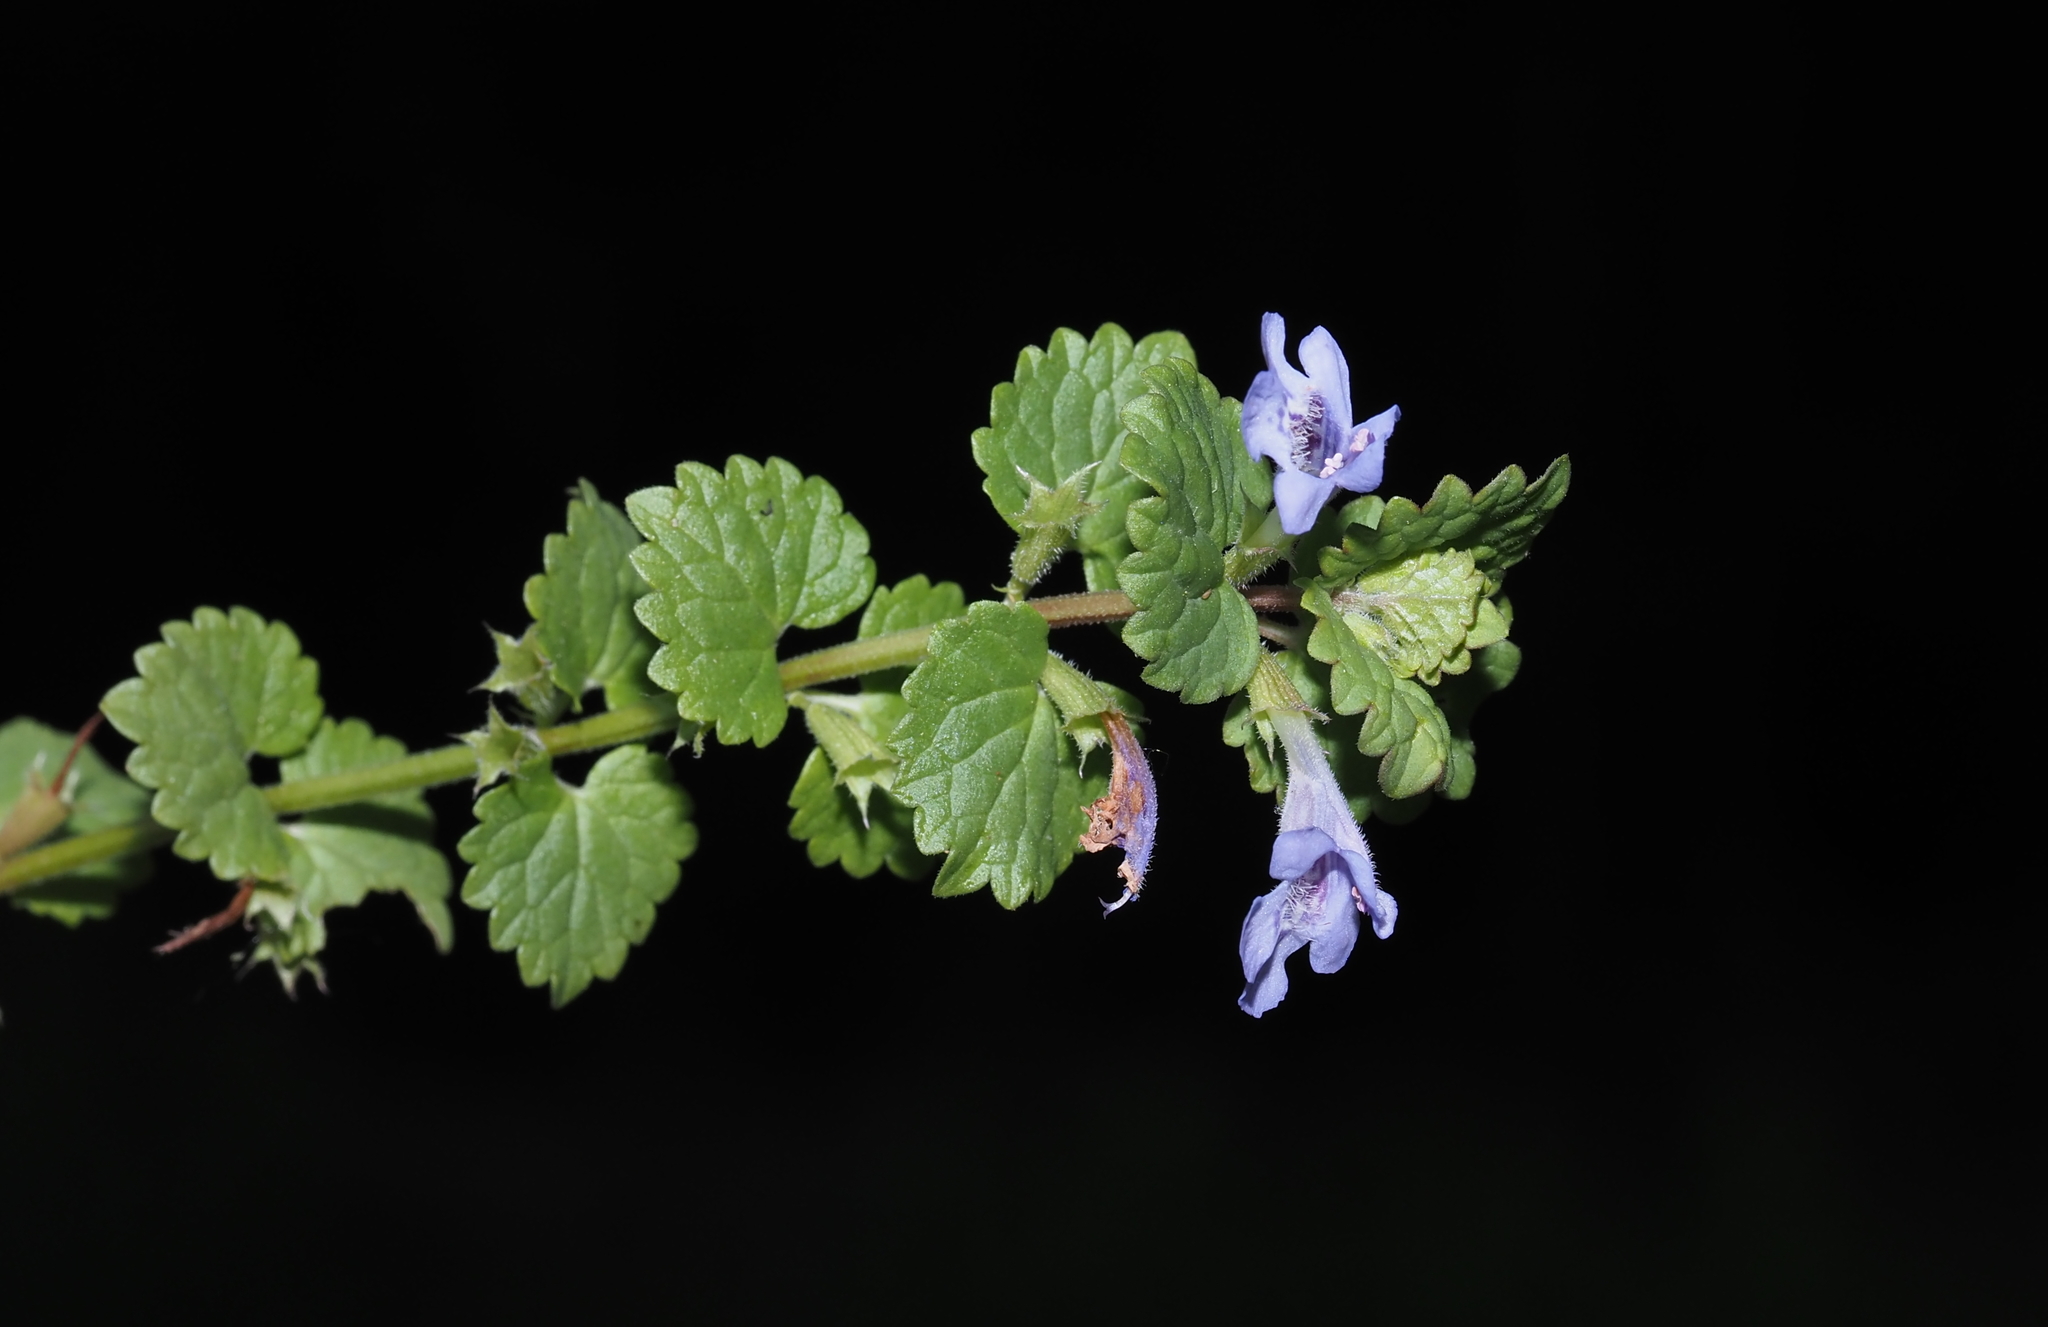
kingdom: Plantae
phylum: Tracheophyta
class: Magnoliopsida
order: Lamiales
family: Lamiaceae
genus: Glechoma
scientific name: Glechoma hederacea
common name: Ground ivy
